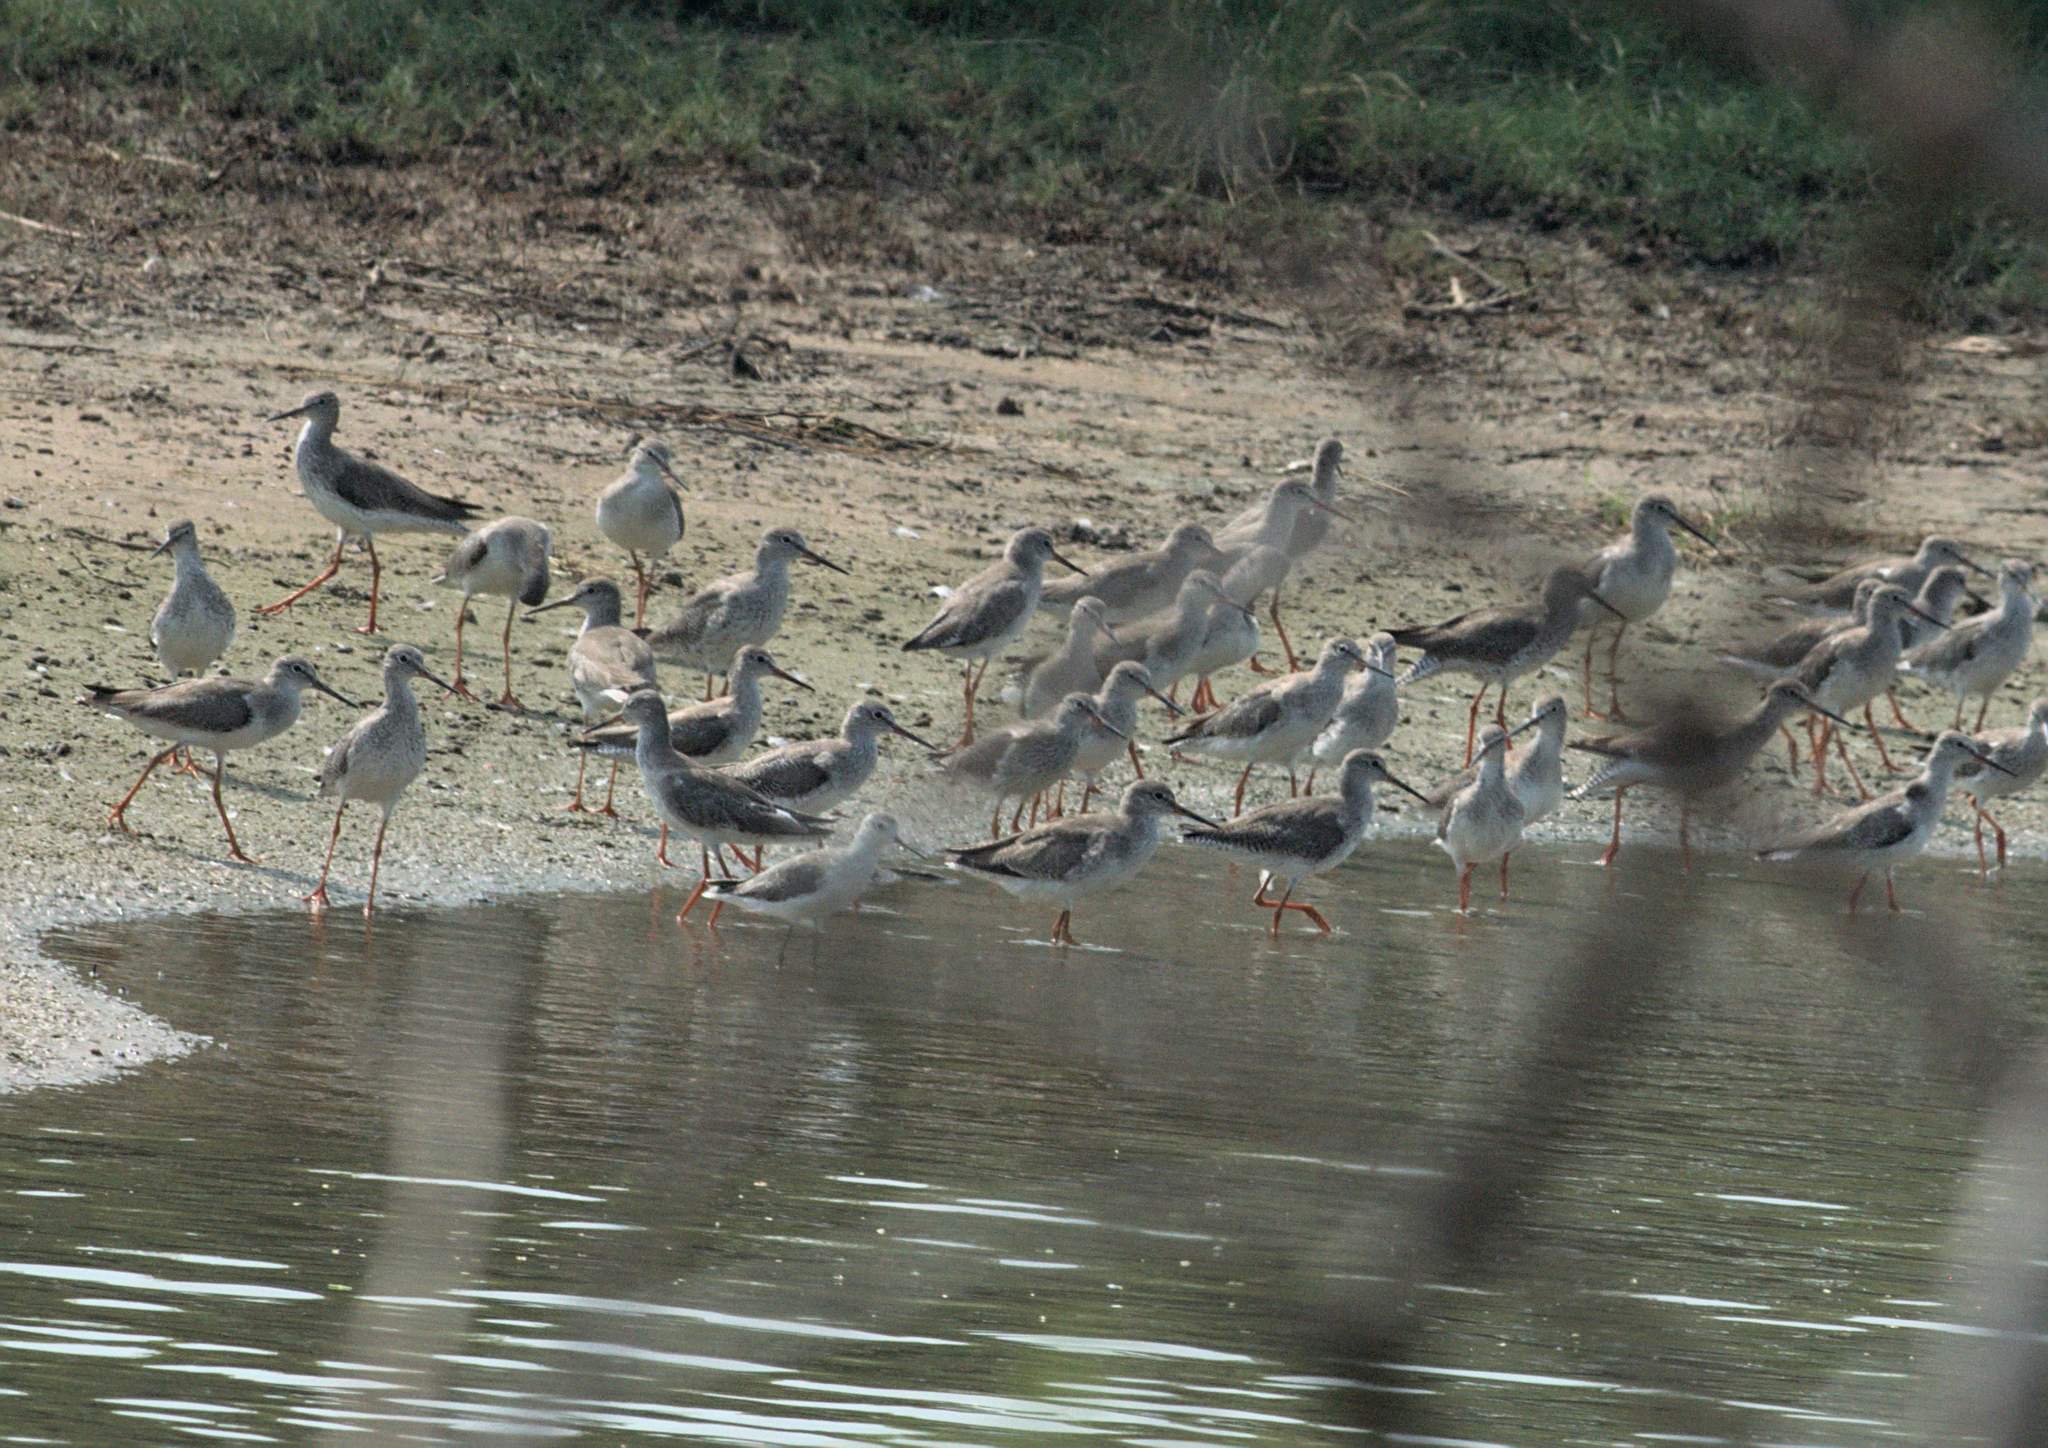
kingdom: Animalia
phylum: Chordata
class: Aves
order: Charadriiformes
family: Scolopacidae
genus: Tringa
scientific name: Tringa totanus
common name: Common redshank
